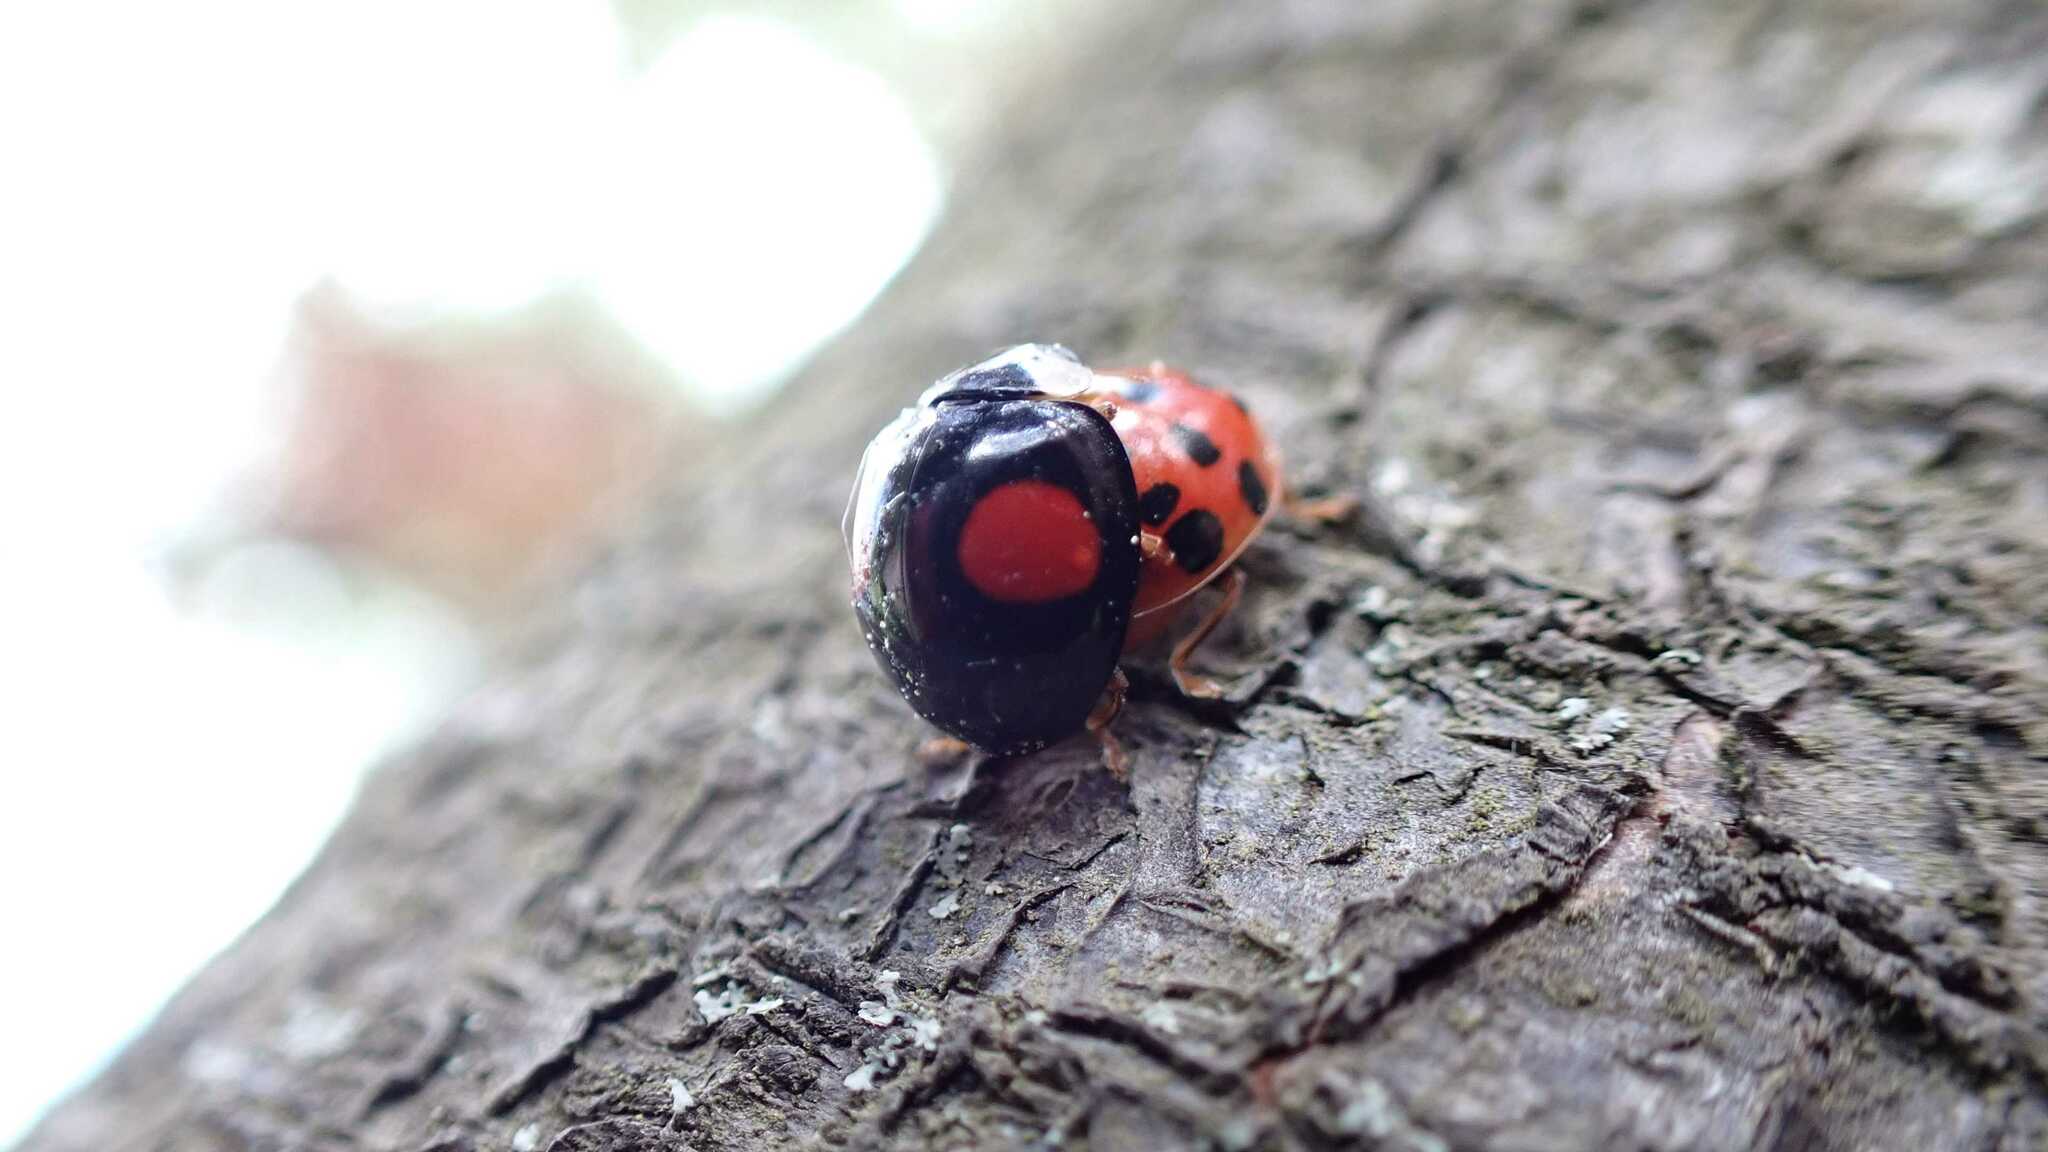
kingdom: Animalia
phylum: Arthropoda
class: Insecta
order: Coleoptera
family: Coccinellidae
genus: Harmonia
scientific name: Harmonia axyridis
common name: Harlequin ladybird
